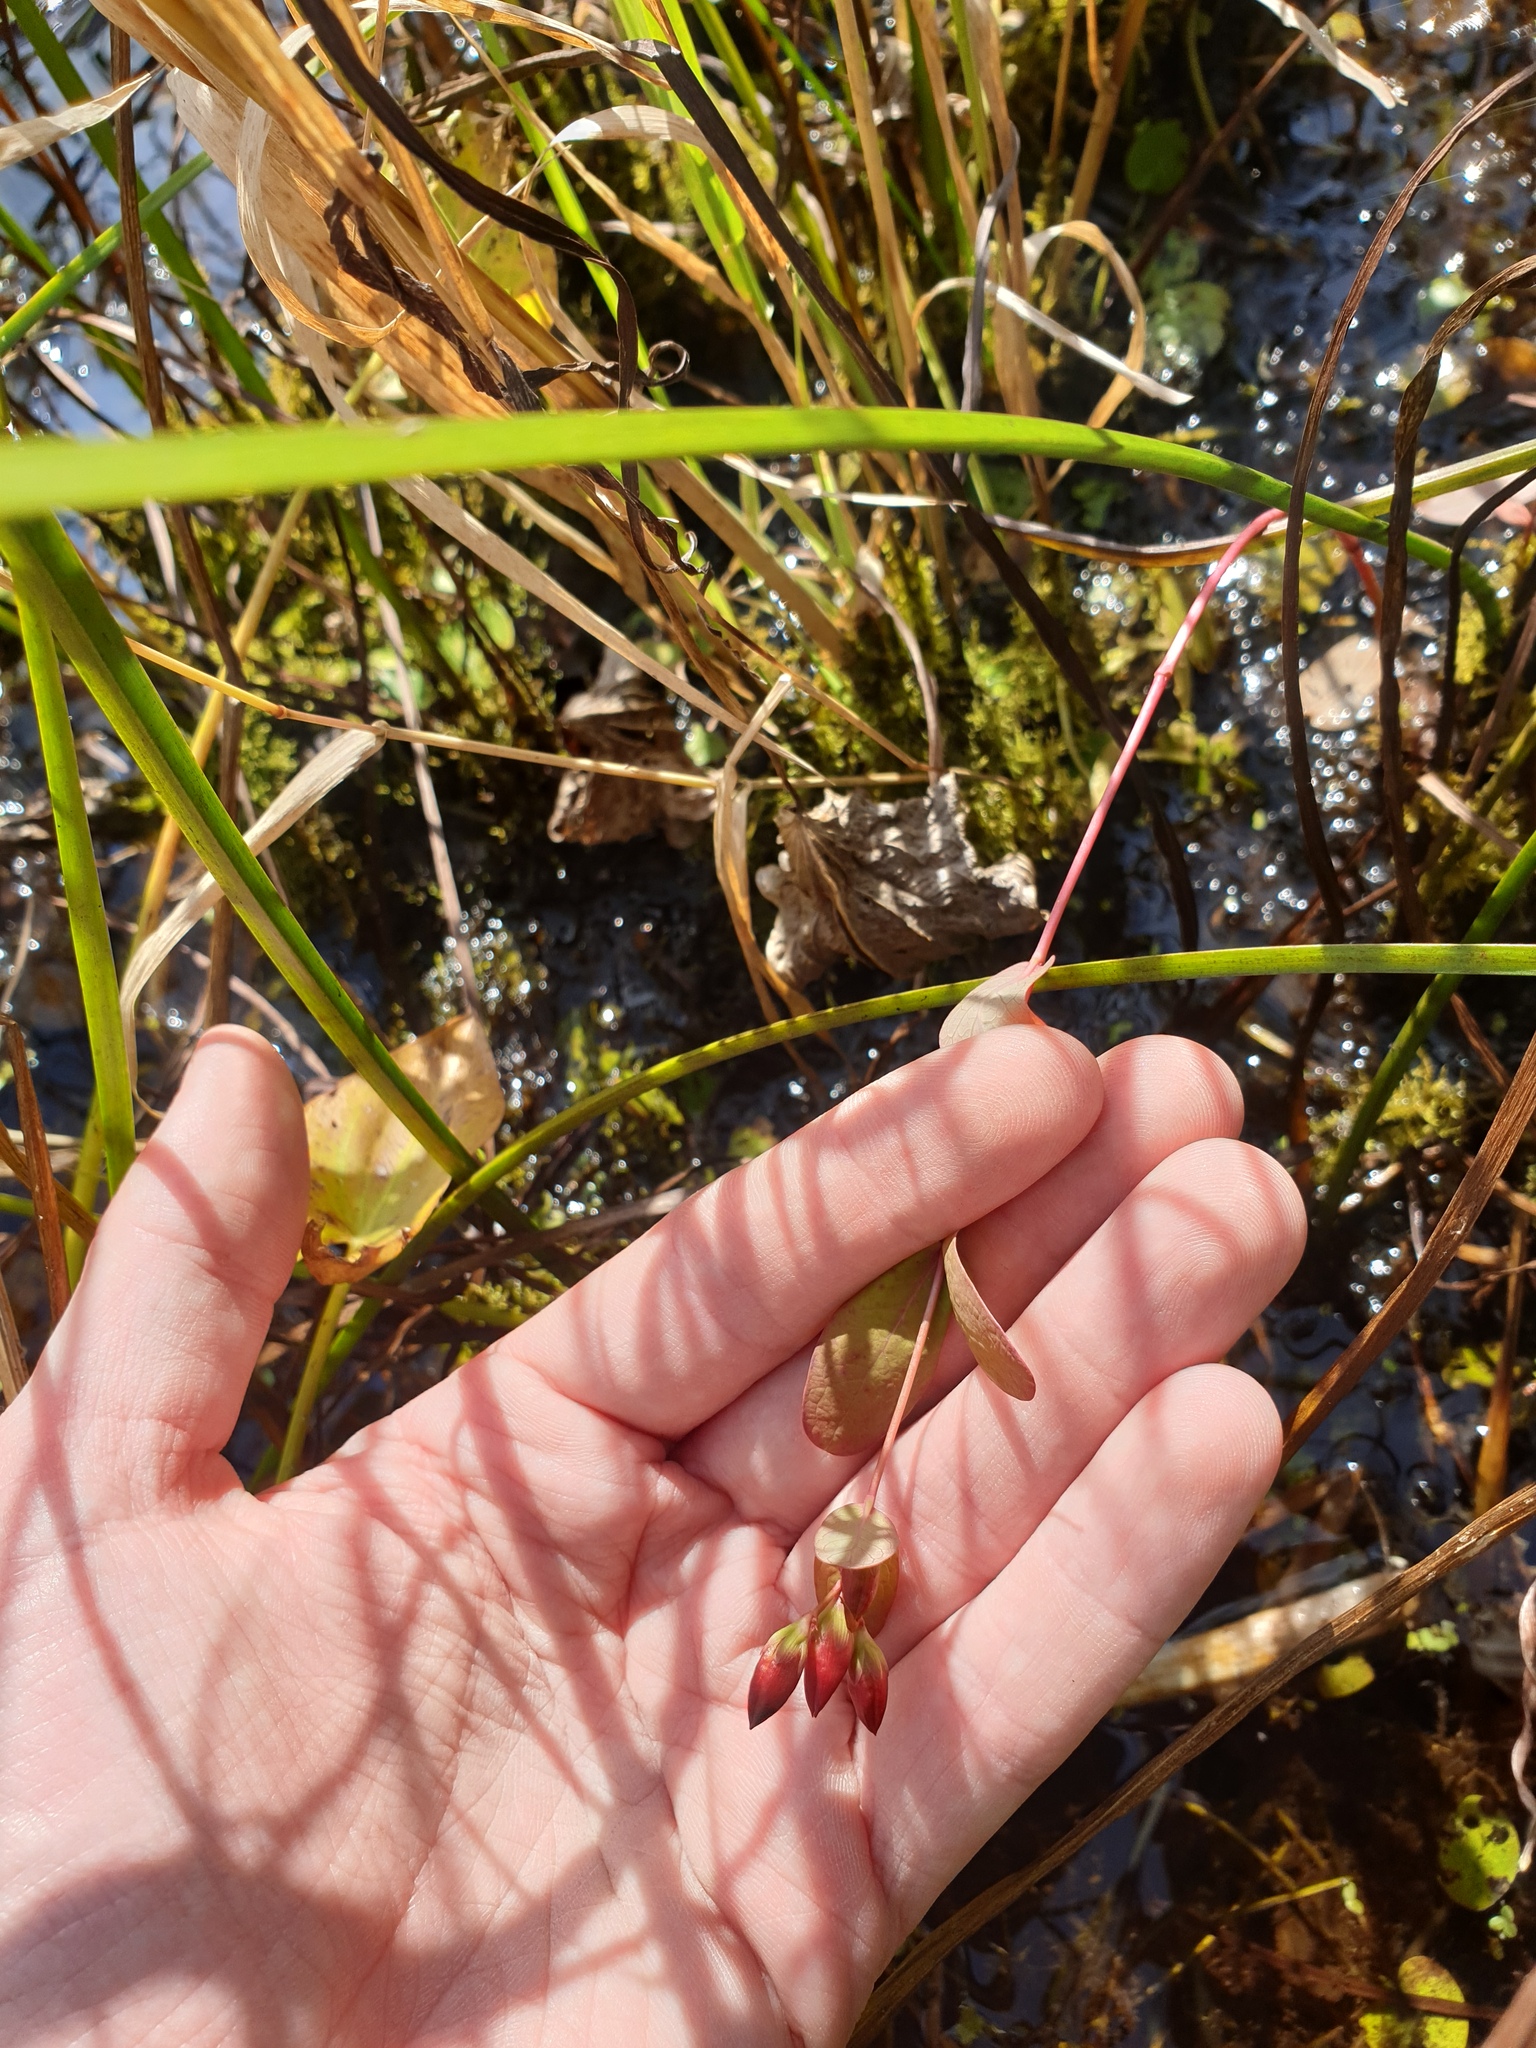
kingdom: Plantae
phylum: Tracheophyta
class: Magnoliopsida
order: Malpighiales
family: Hypericaceae
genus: Triadenum
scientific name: Triadenum fraseri
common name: Fraser's marsh st. johnswort
